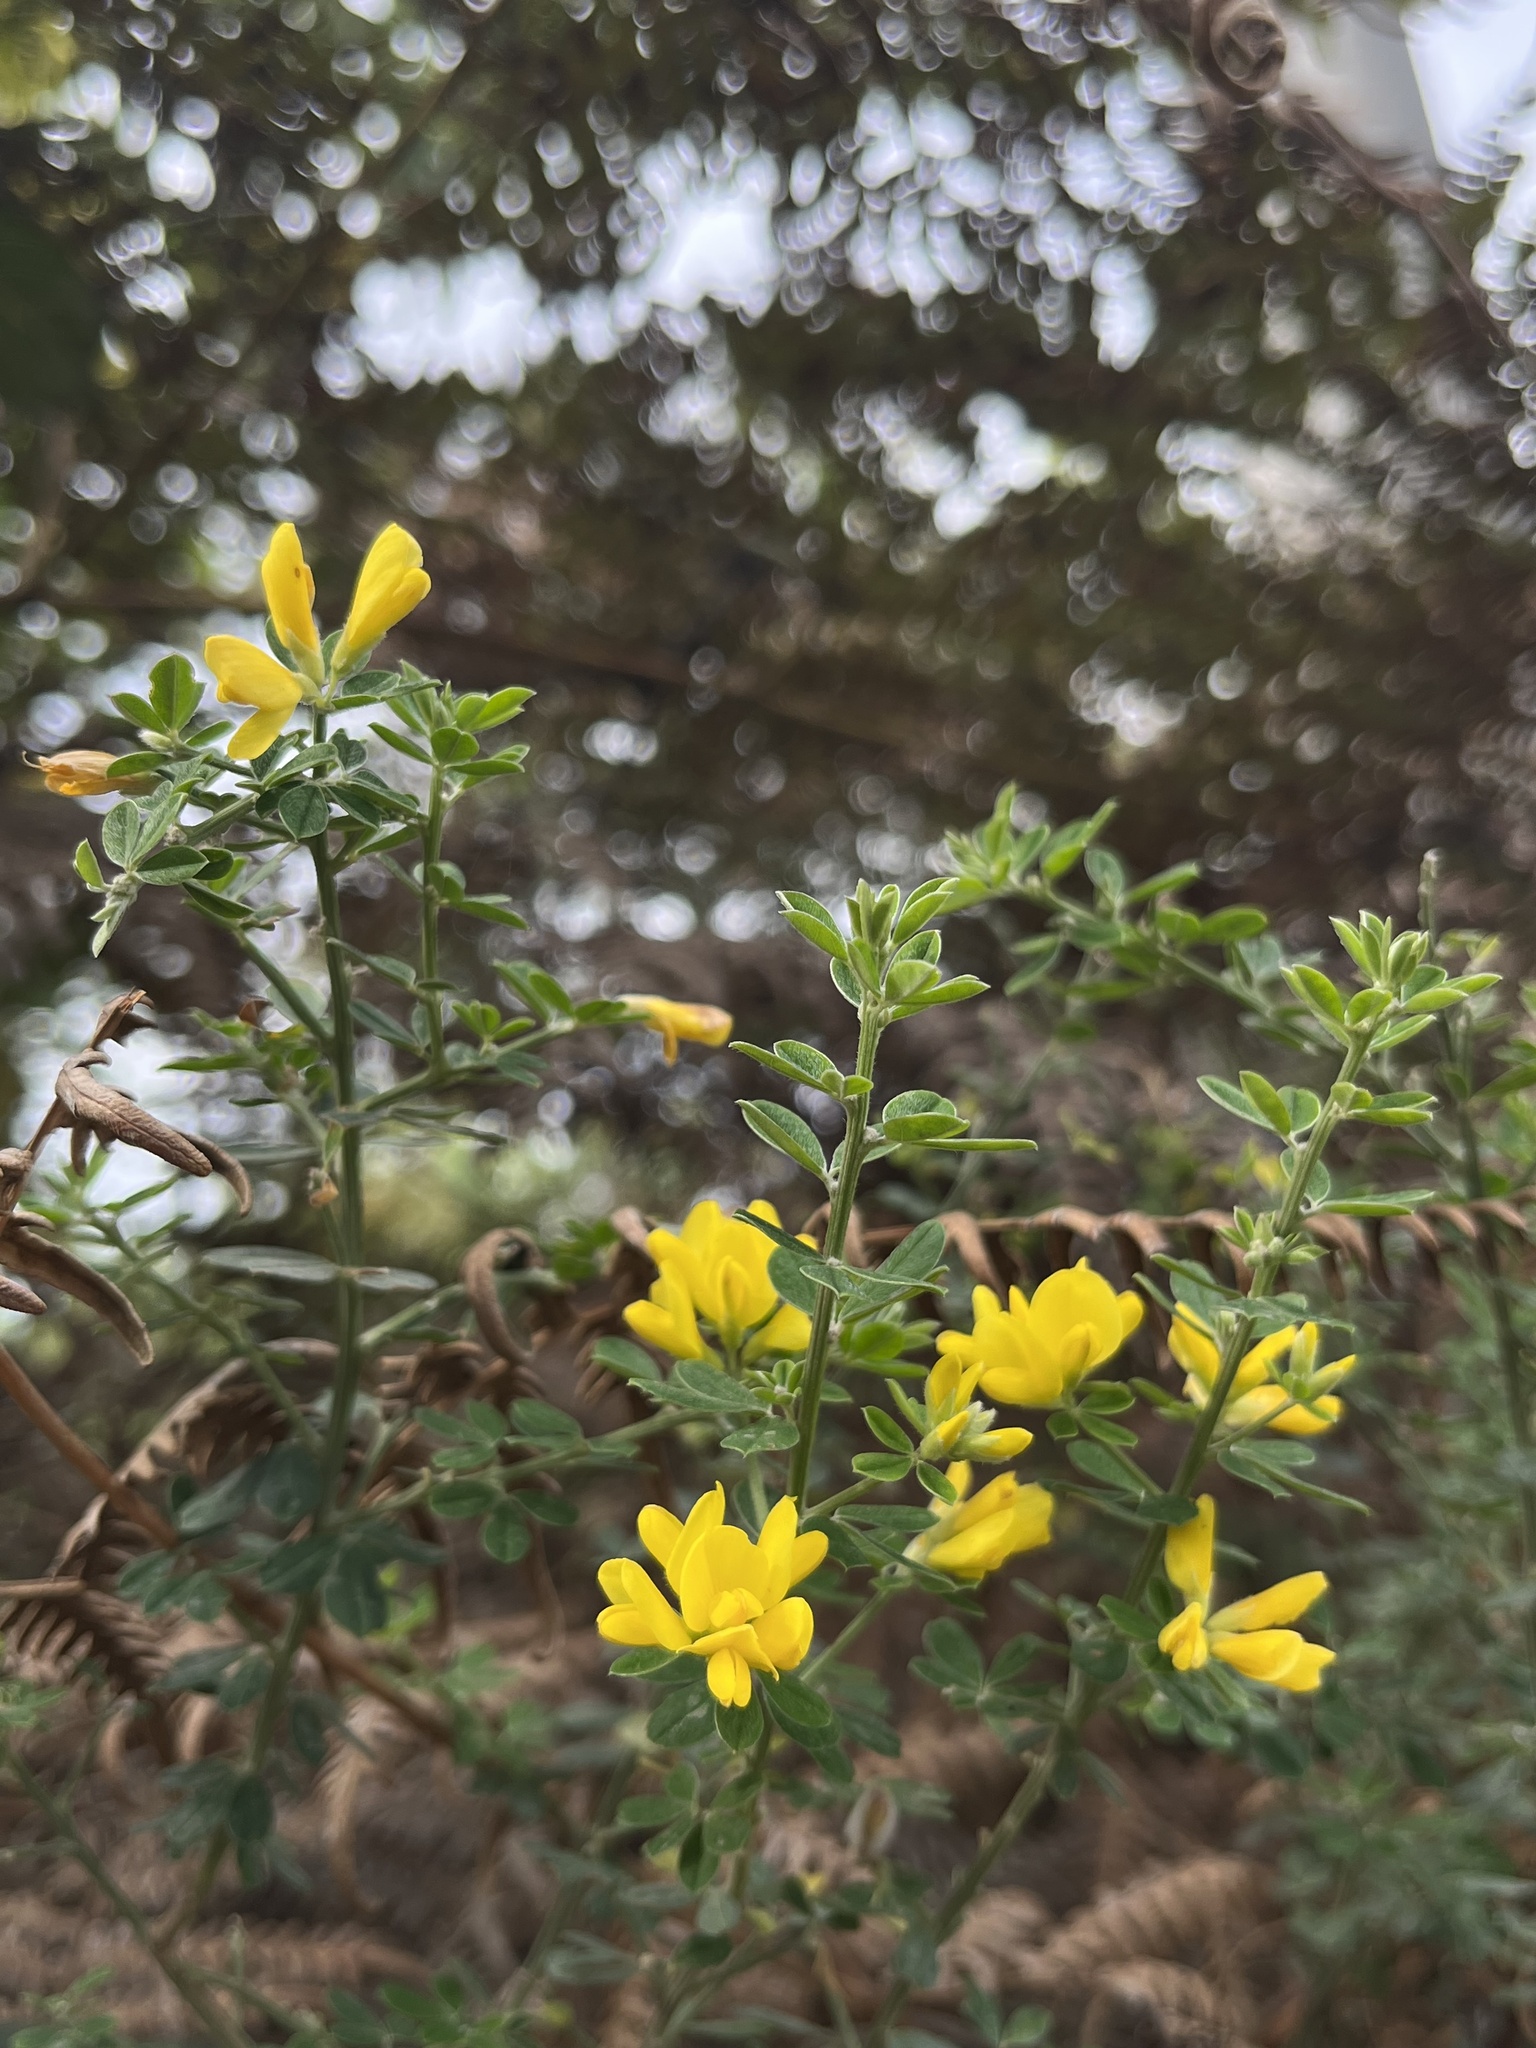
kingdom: Plantae
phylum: Tracheophyta
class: Magnoliopsida
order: Fabales
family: Fabaceae
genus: Genista
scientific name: Genista monspessulana
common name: Montpellier broom
